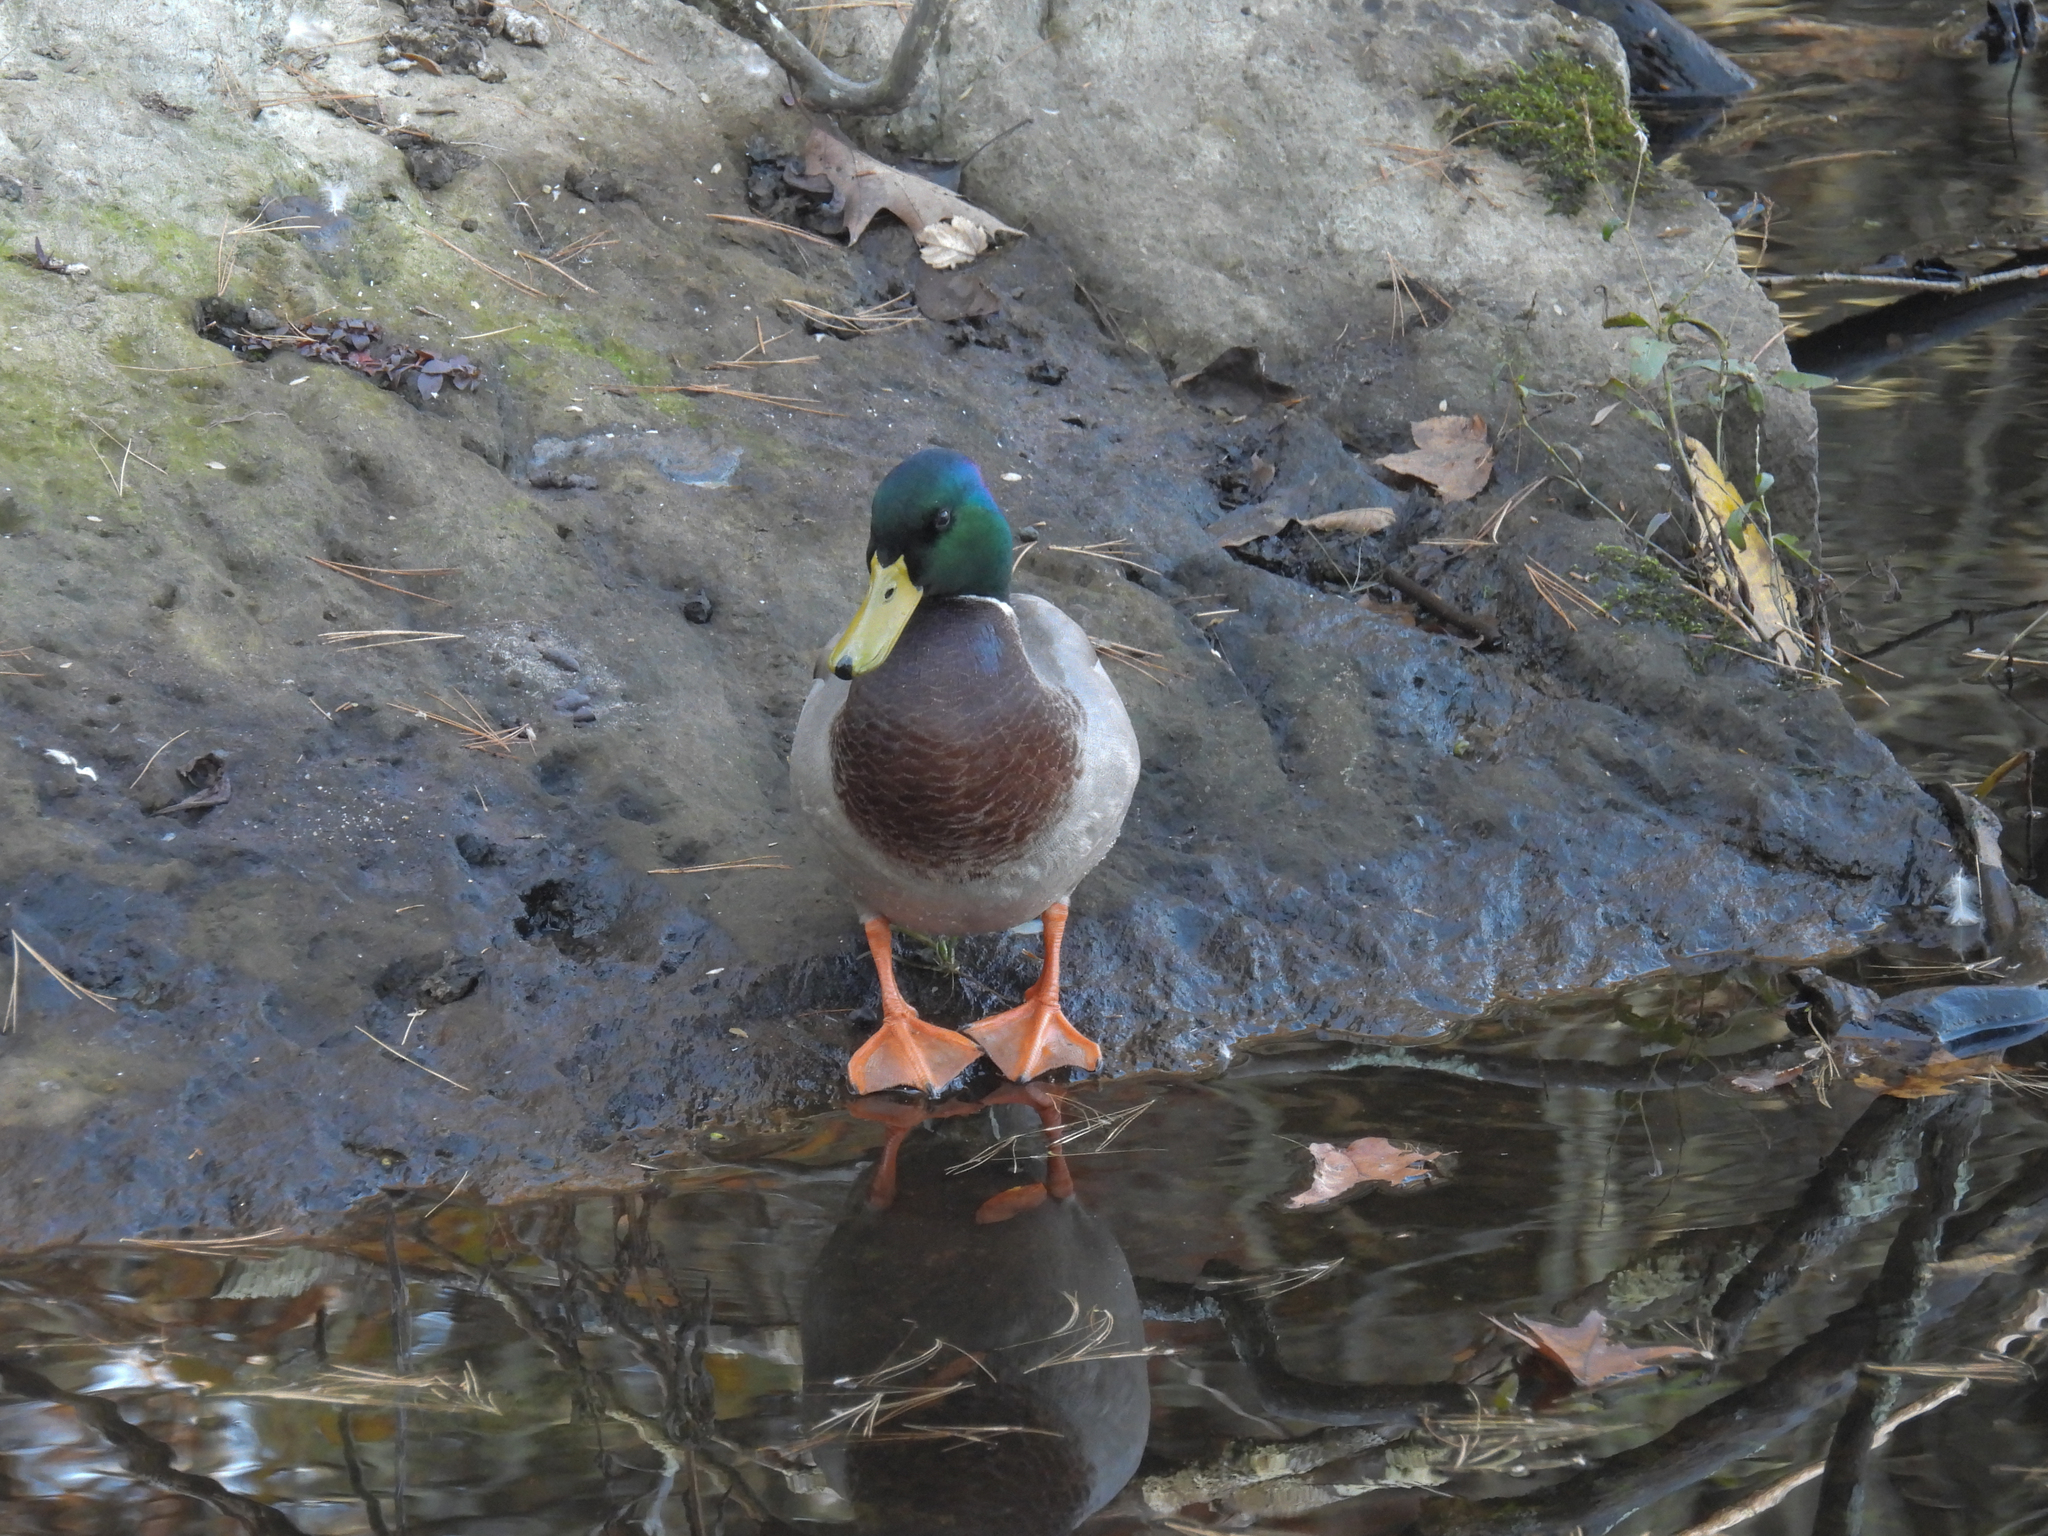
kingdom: Animalia
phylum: Chordata
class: Aves
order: Anseriformes
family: Anatidae
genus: Anas
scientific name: Anas platyrhynchos
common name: Mallard
